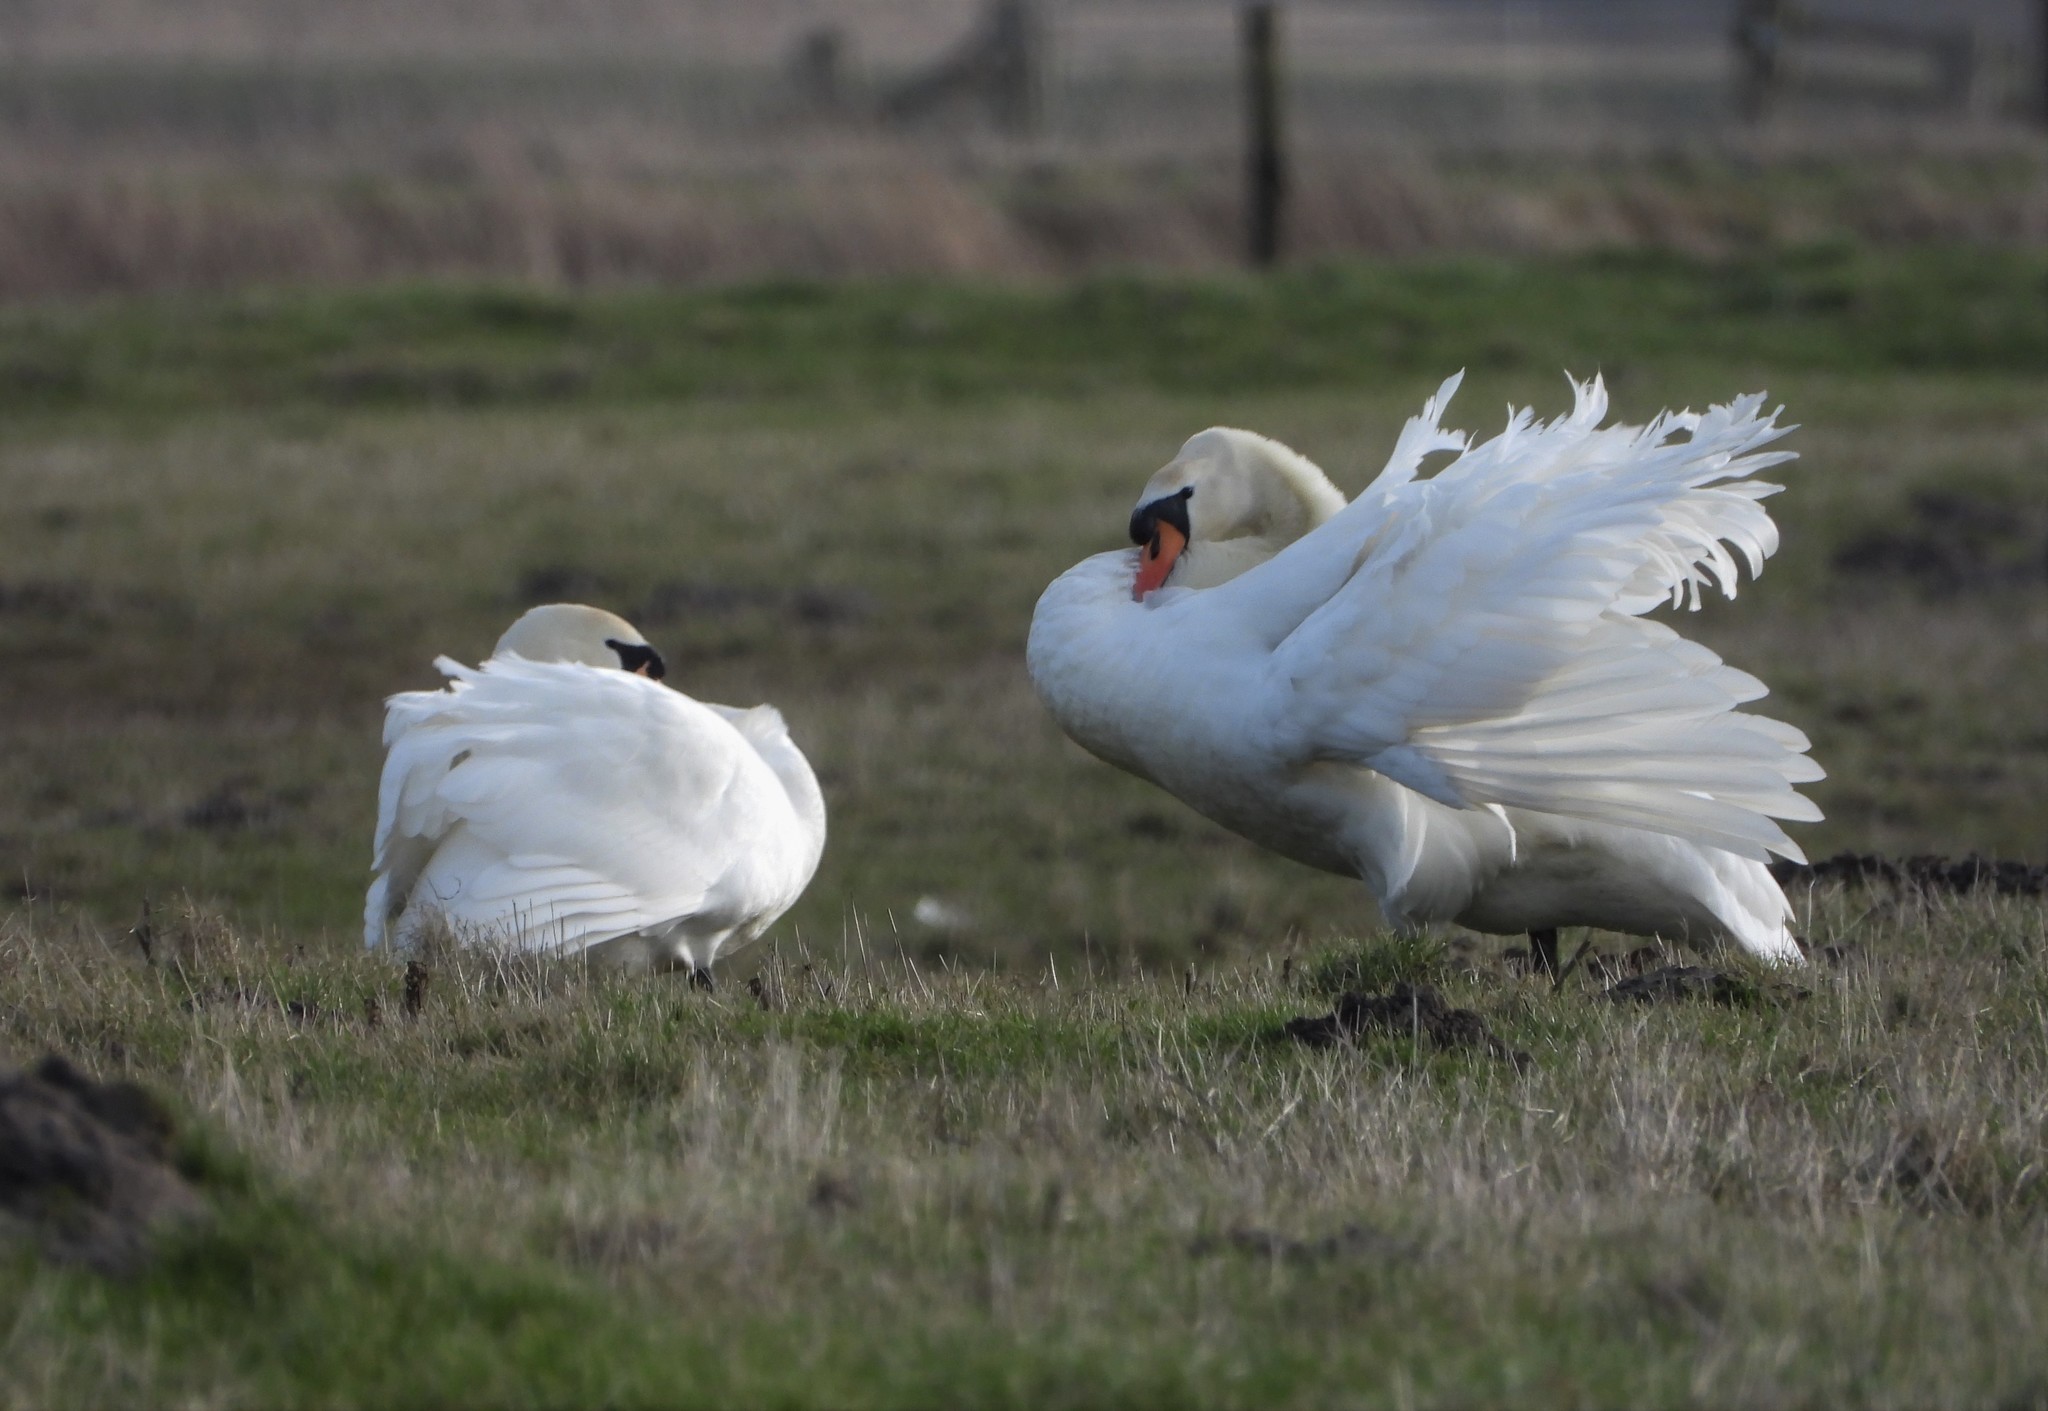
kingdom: Animalia
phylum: Chordata
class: Aves
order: Anseriformes
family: Anatidae
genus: Cygnus
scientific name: Cygnus olor
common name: Mute swan
